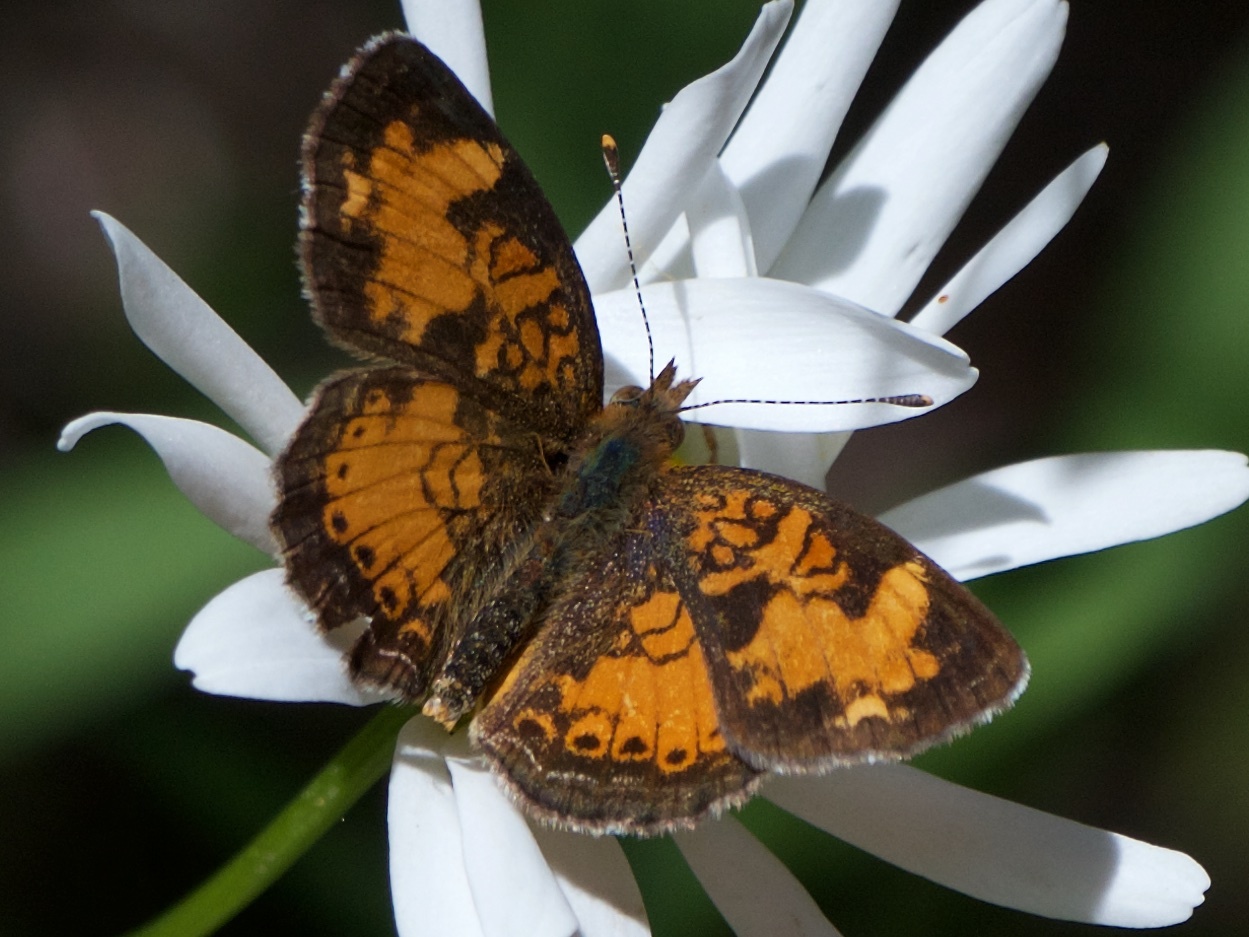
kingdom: Animalia
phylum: Arthropoda
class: Insecta
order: Lepidoptera
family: Nymphalidae
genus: Phyciodes
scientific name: Phyciodes tharos
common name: Pearl crescent
